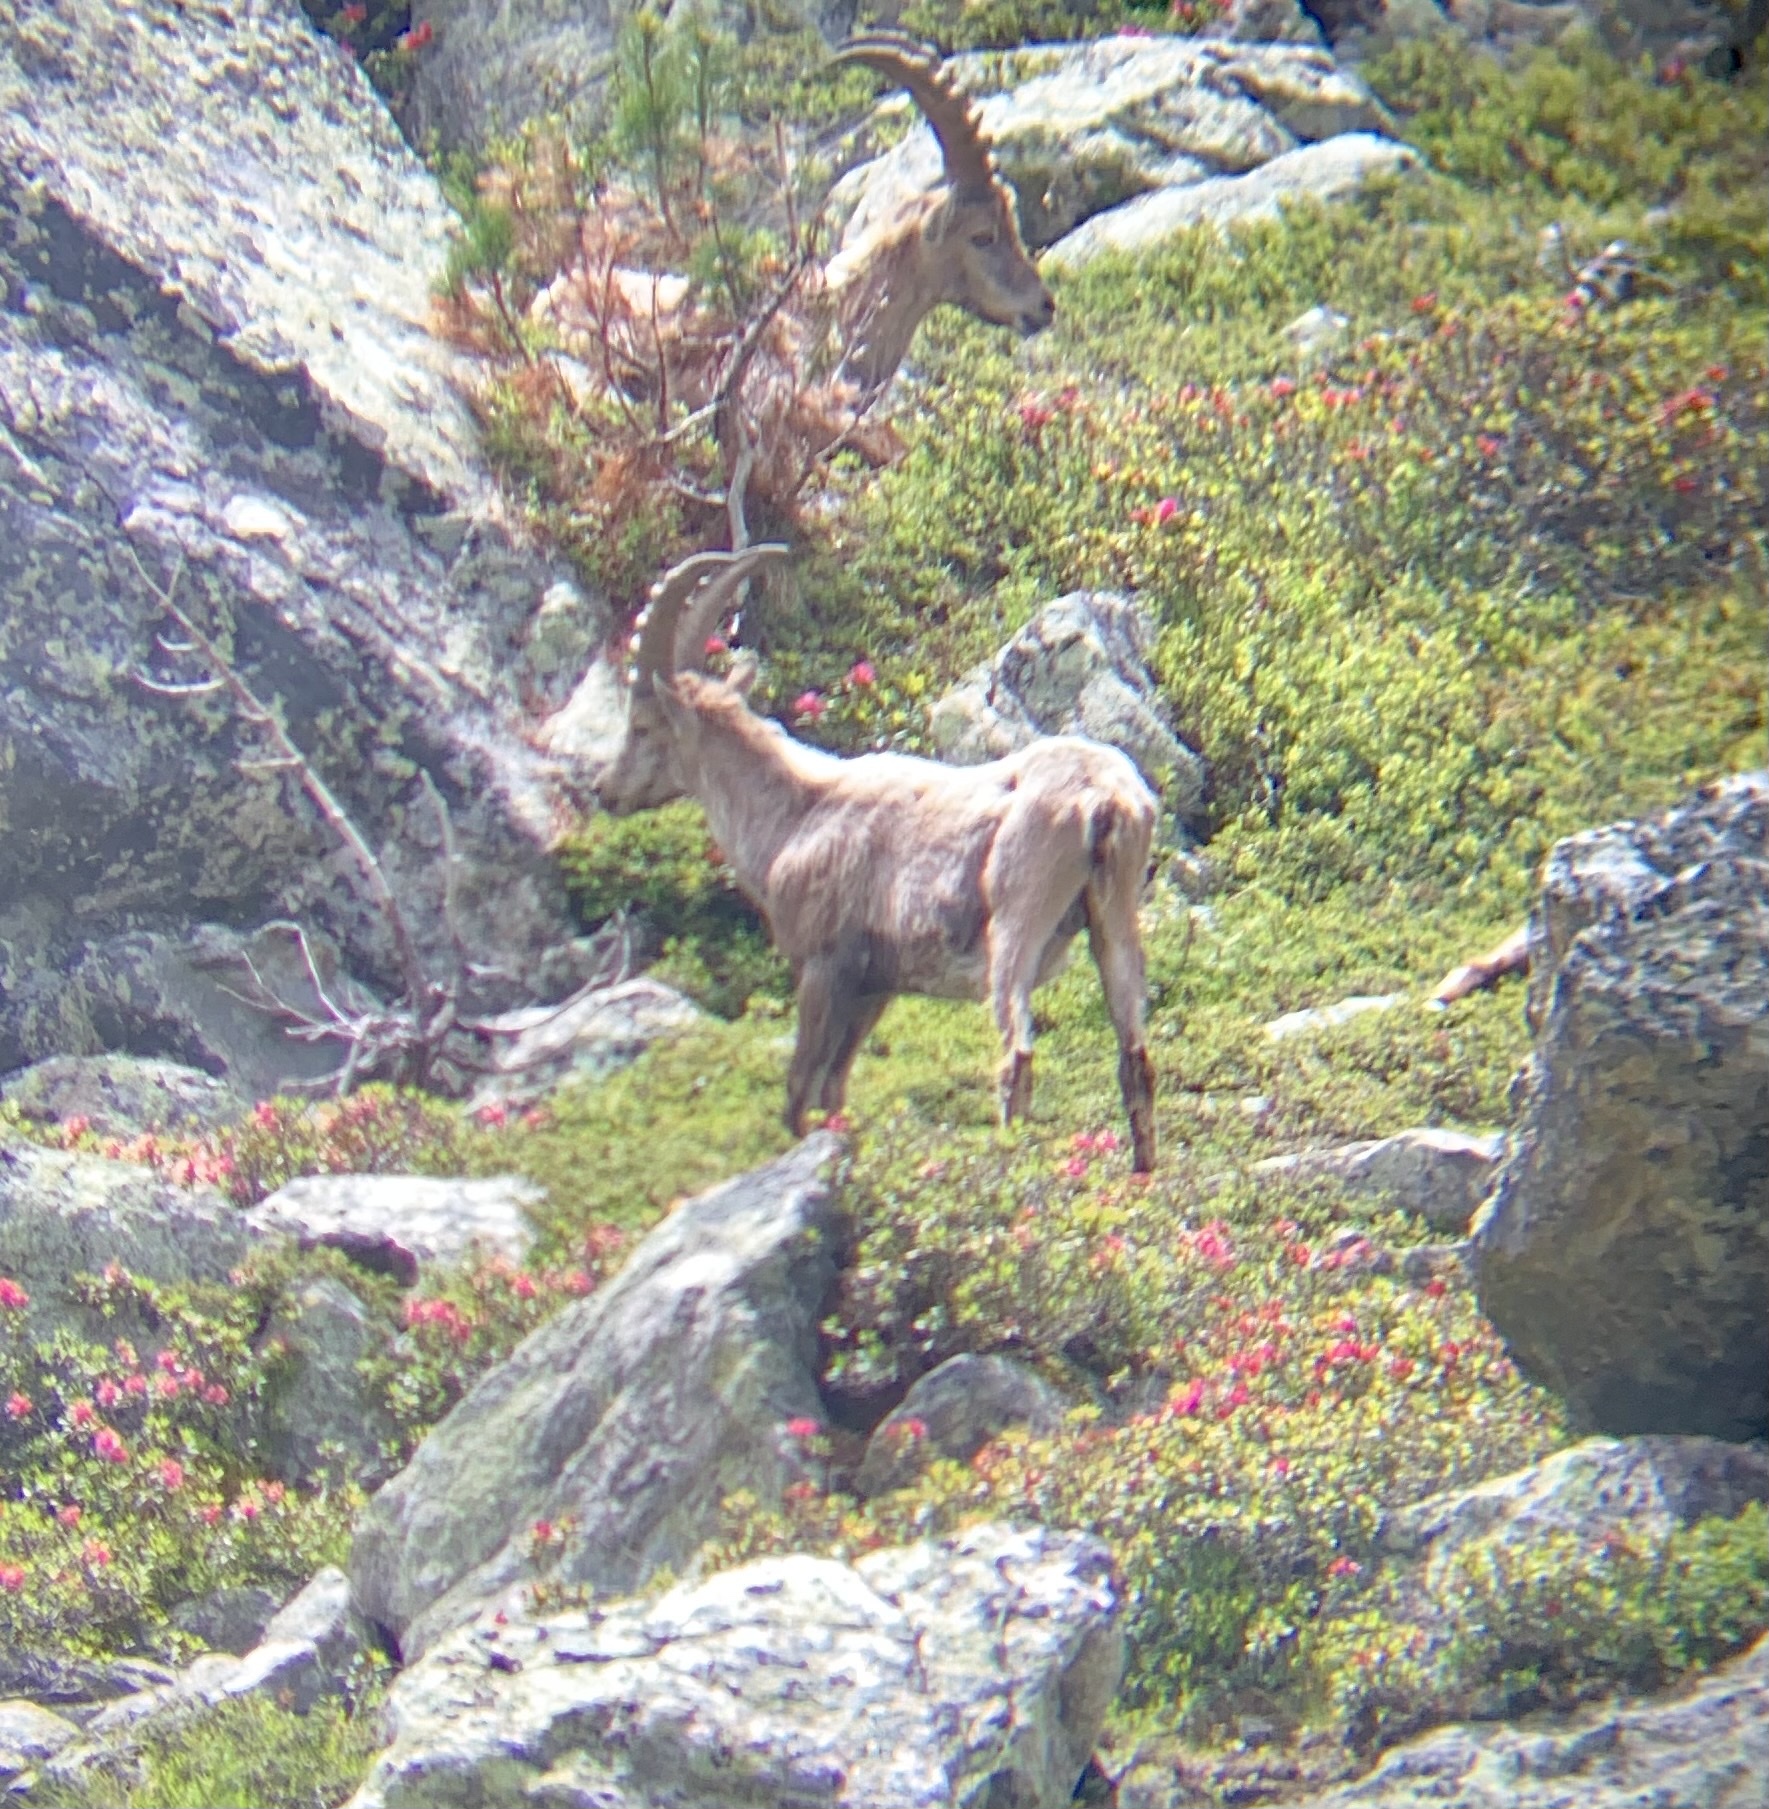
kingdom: Animalia
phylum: Chordata
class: Mammalia
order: Artiodactyla
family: Bovidae
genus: Capra
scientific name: Capra ibex
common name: Alpine ibex
